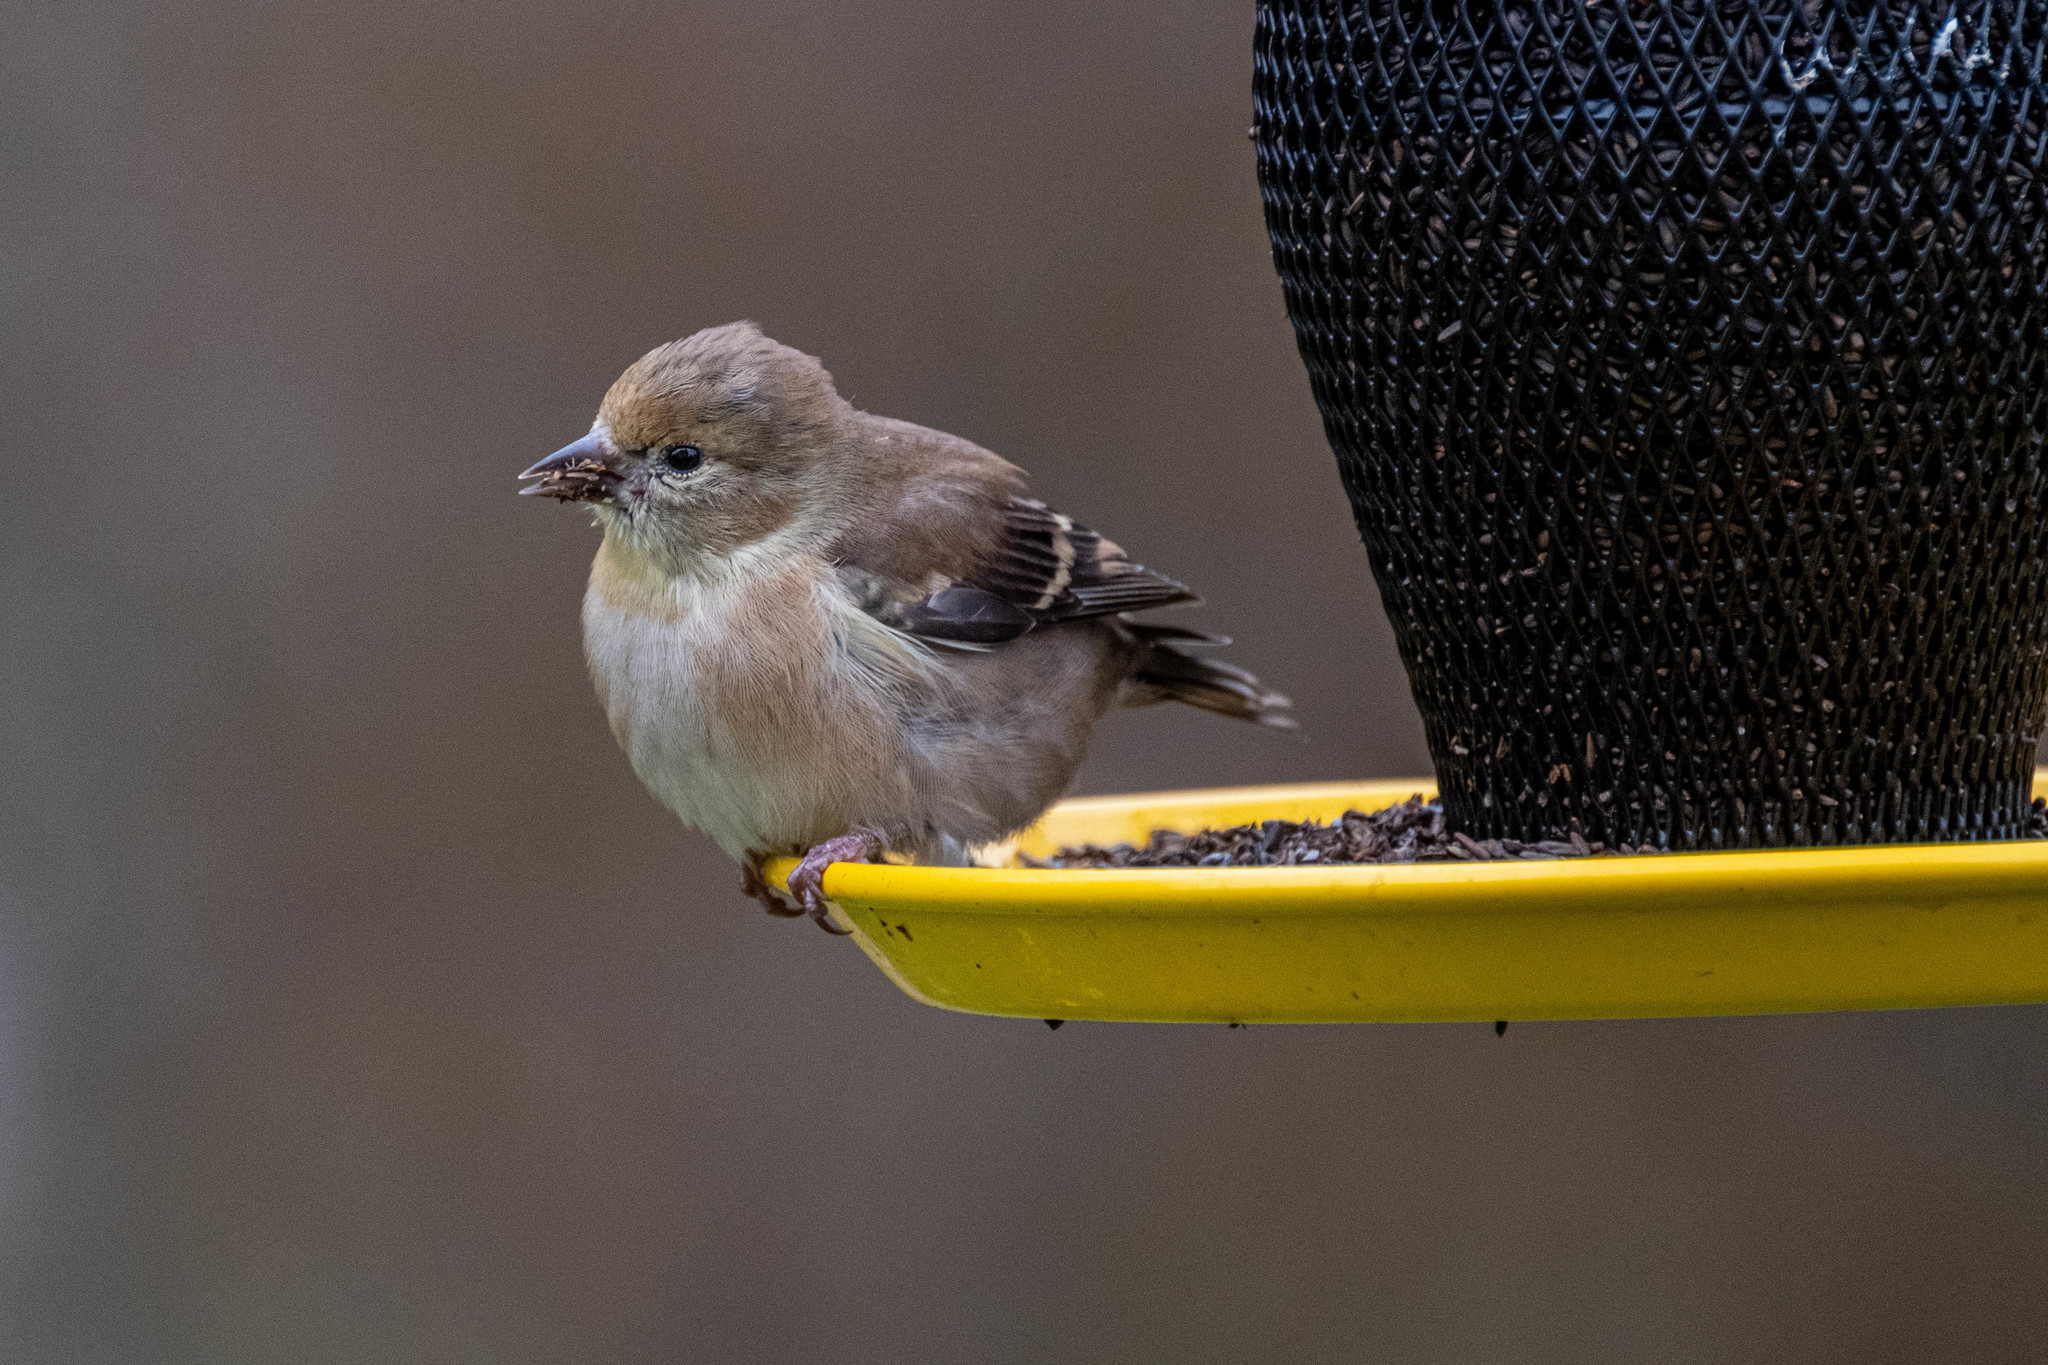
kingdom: Animalia
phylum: Chordata
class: Aves
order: Passeriformes
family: Fringillidae
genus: Spinus
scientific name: Spinus tristis
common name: American goldfinch
